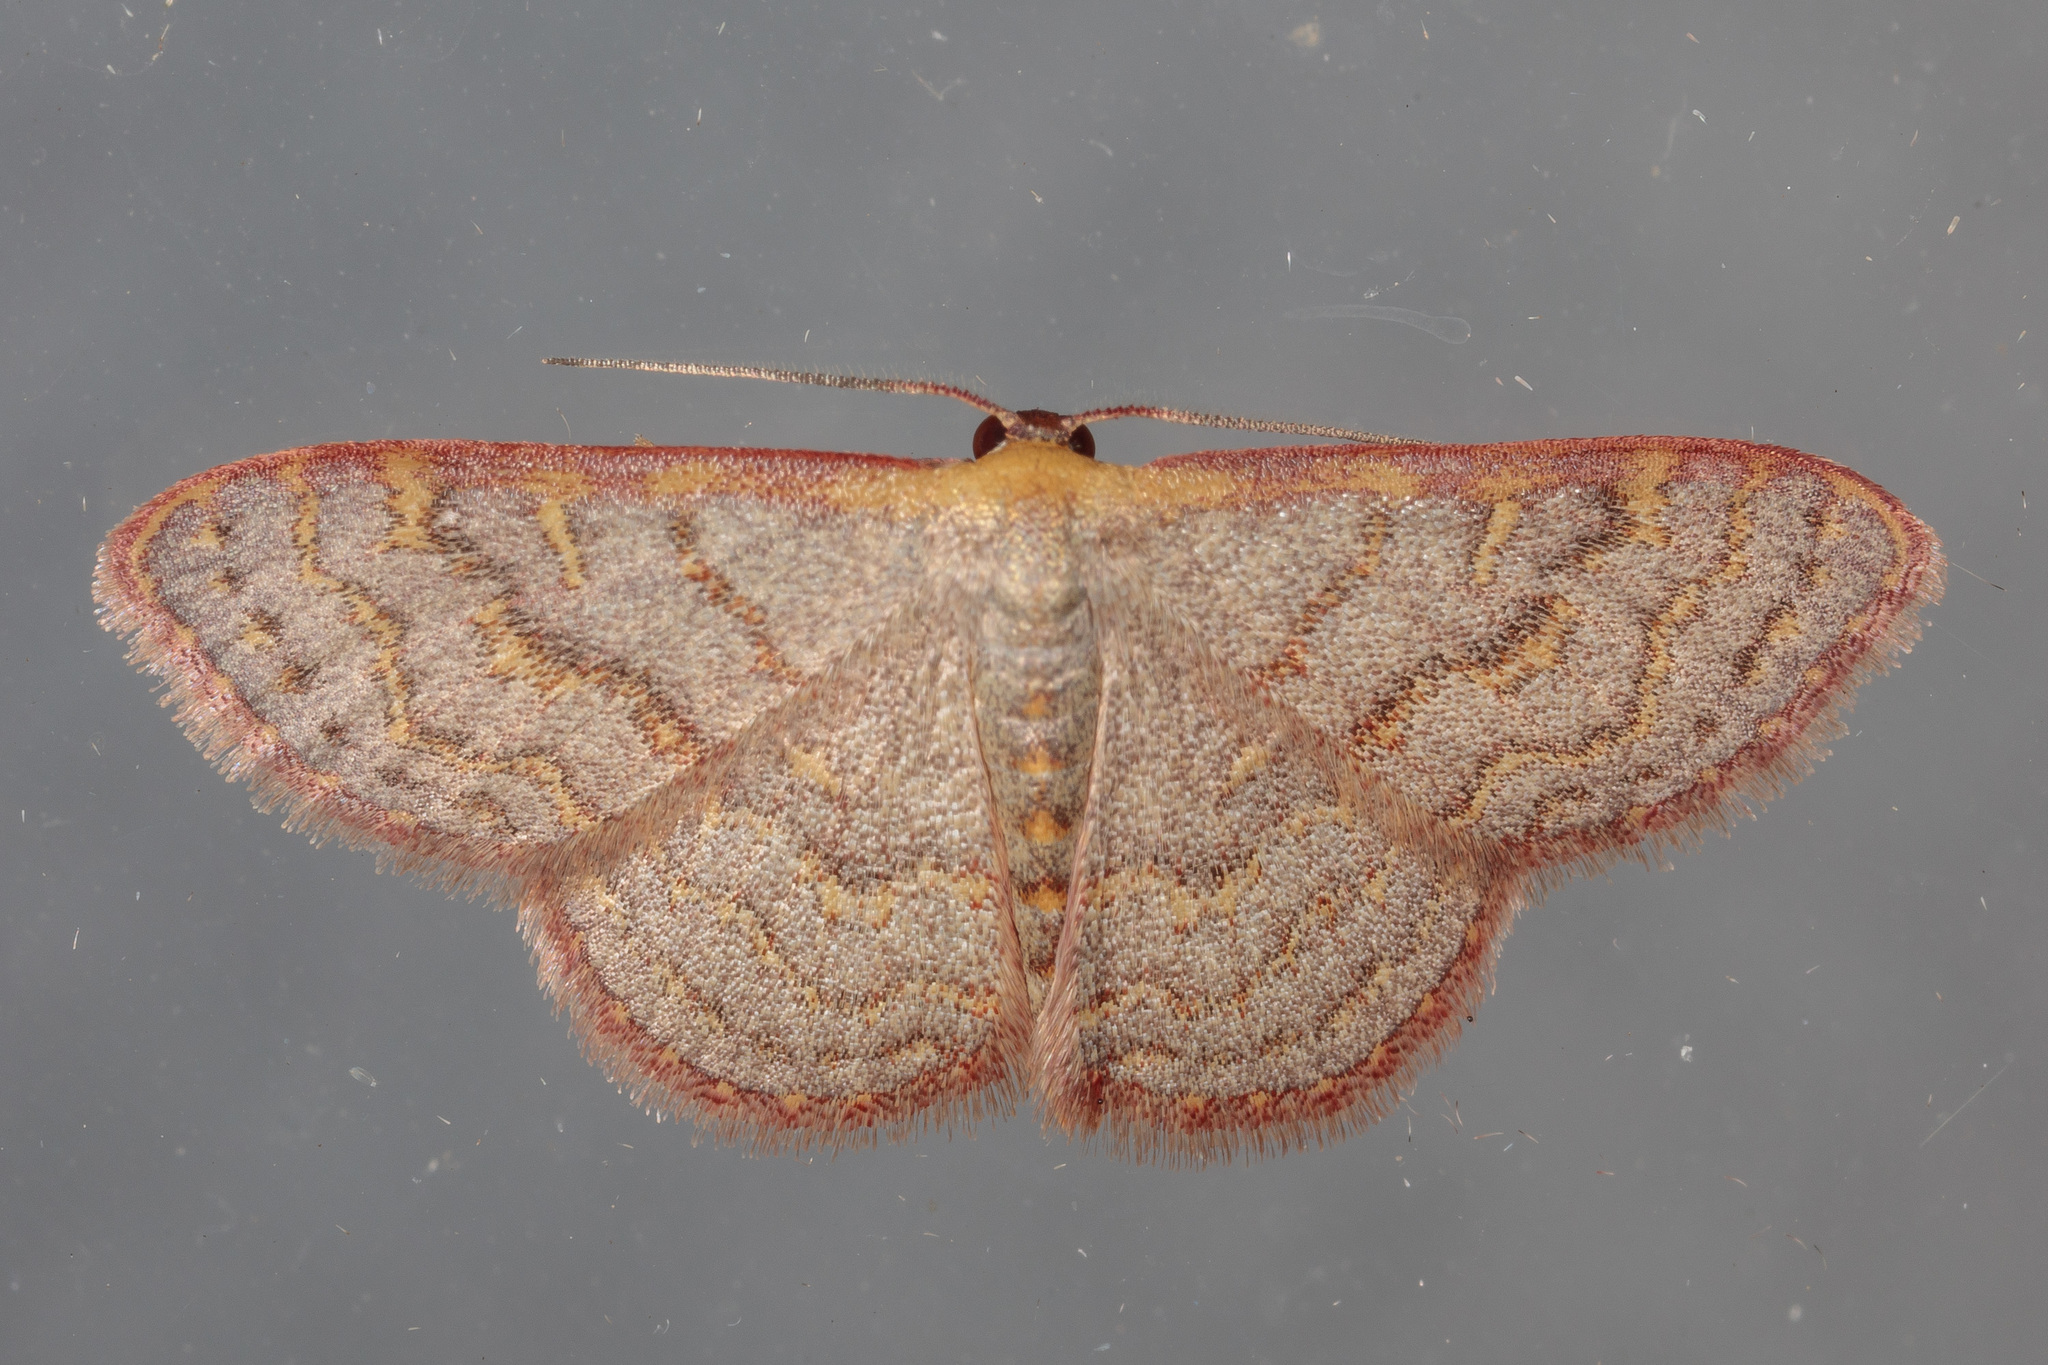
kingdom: Animalia
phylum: Arthropoda
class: Insecta
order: Lepidoptera
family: Geometridae
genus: Leptostales
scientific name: Leptostales pannaria
